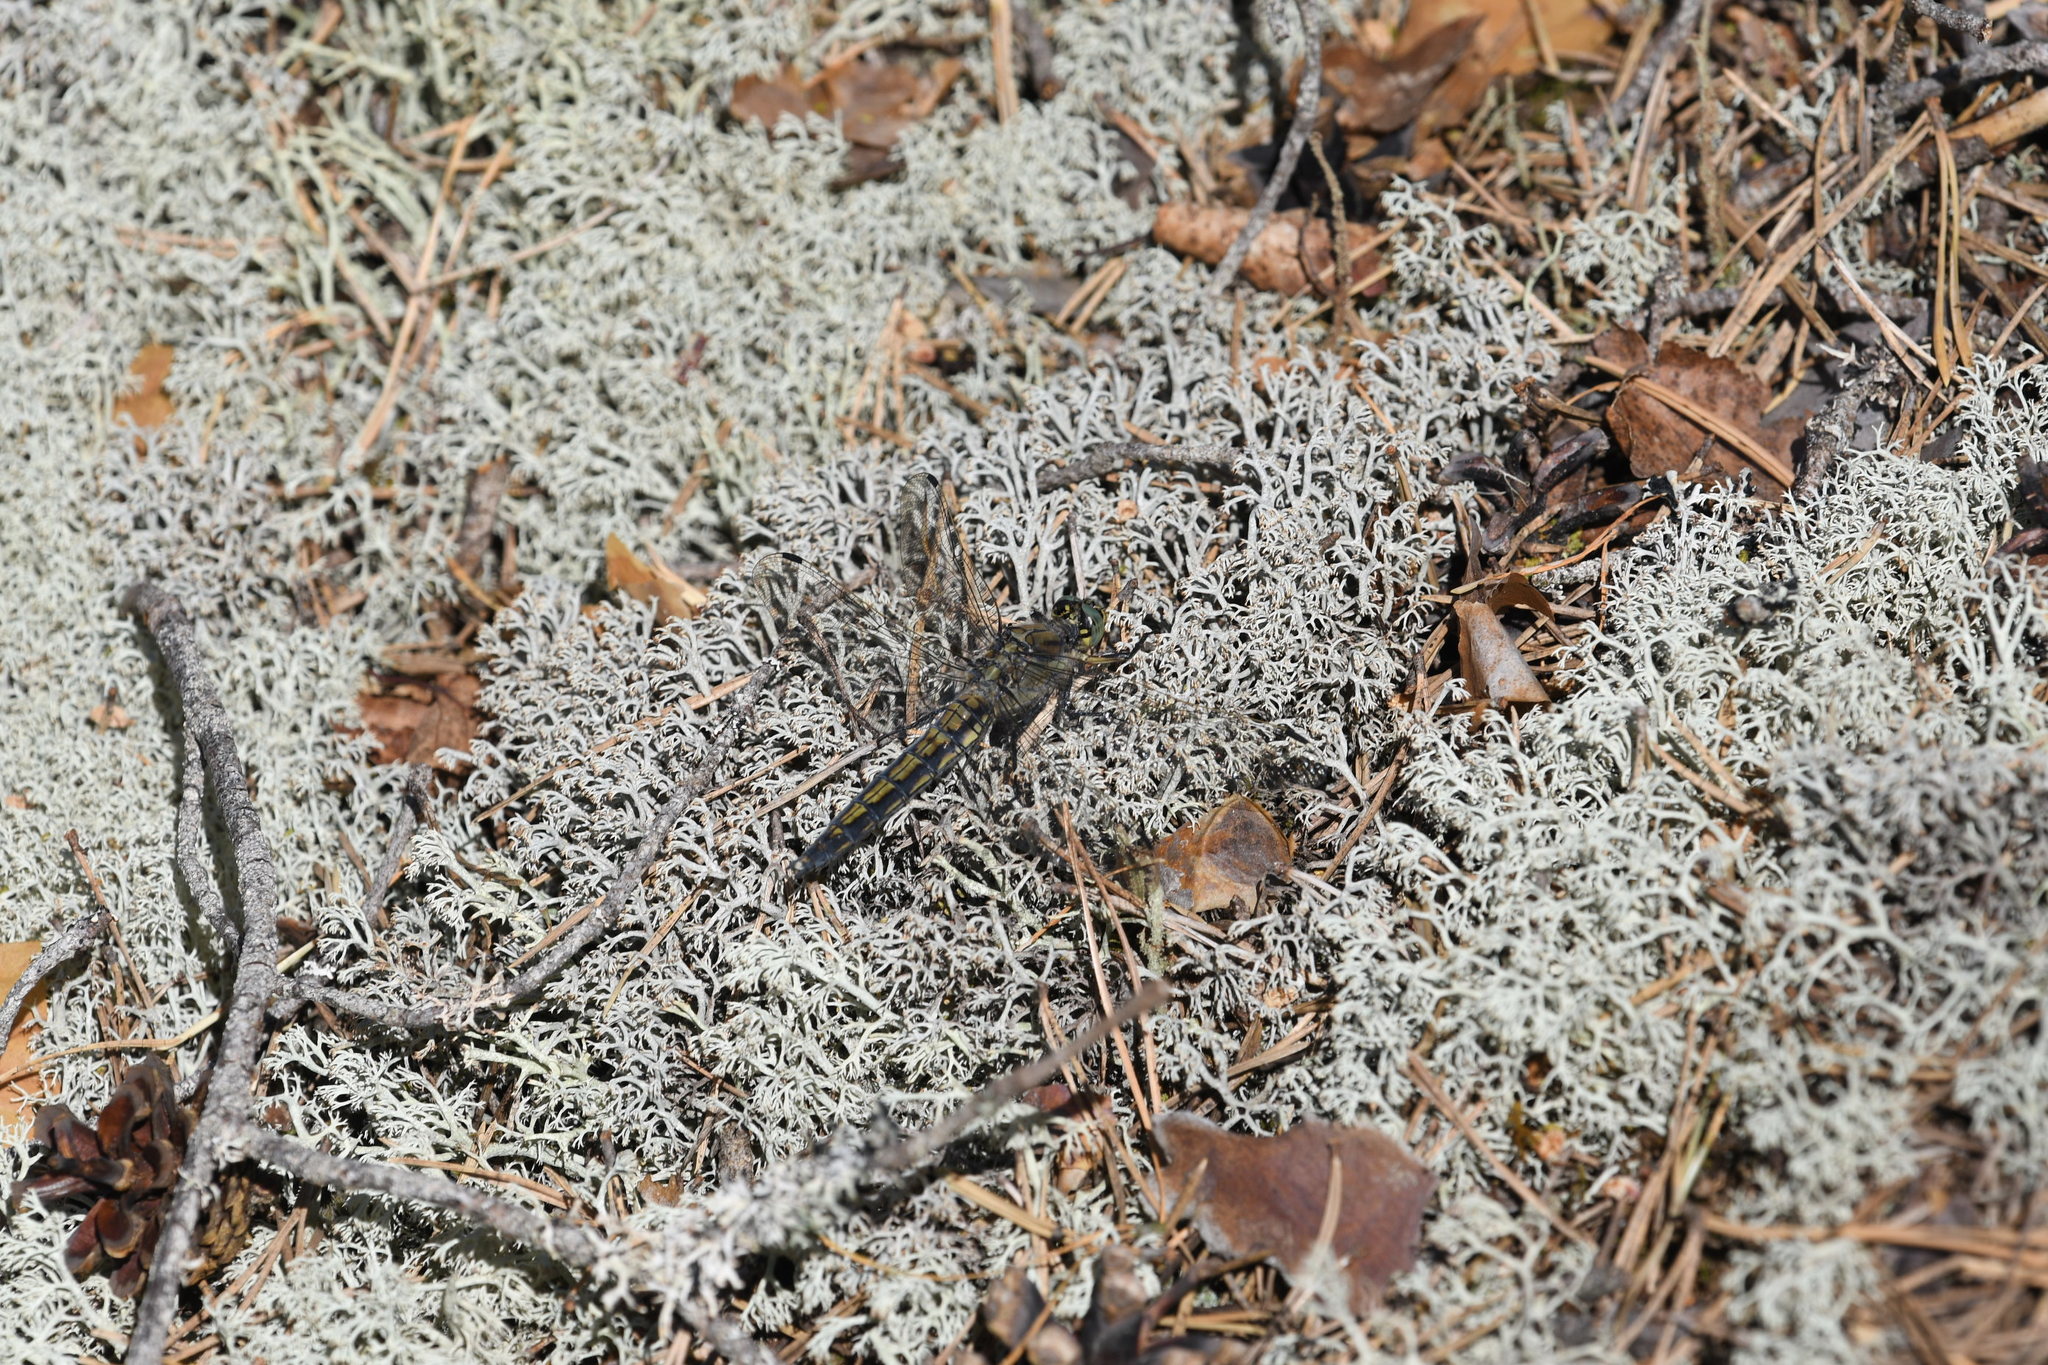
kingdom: Animalia
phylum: Arthropoda
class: Insecta
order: Odonata
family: Libellulidae
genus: Orthetrum
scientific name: Orthetrum cancellatum
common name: Black-tailed skimmer
